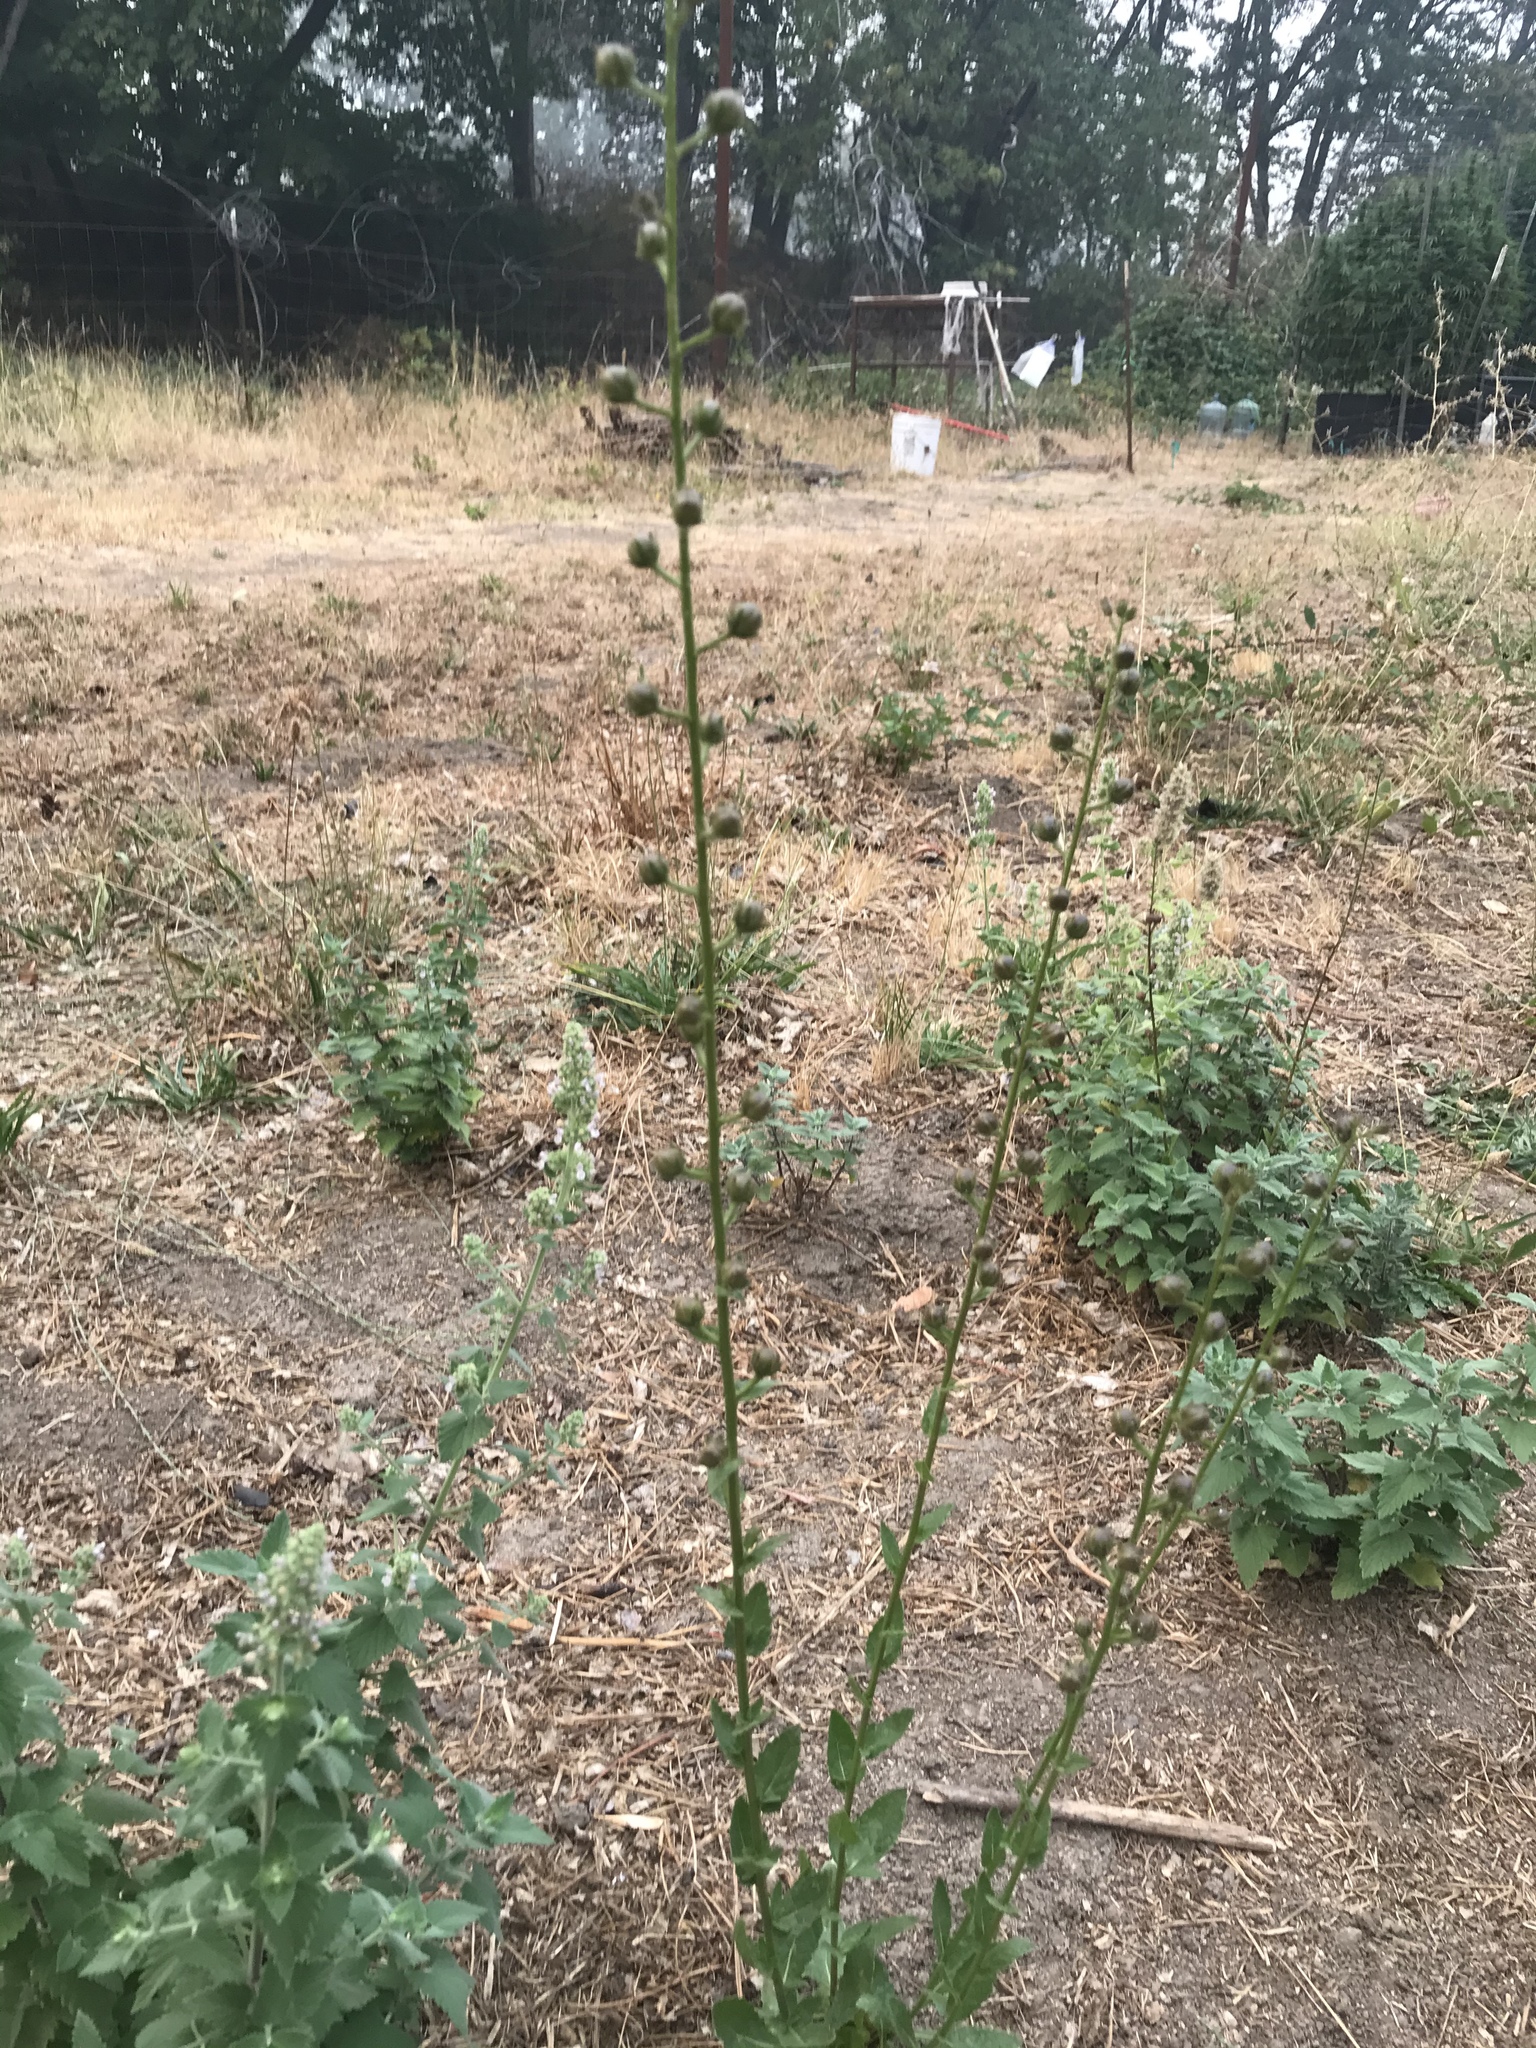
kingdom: Plantae
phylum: Tracheophyta
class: Magnoliopsida
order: Lamiales
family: Scrophulariaceae
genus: Verbascum
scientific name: Verbascum blattaria
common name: Moth mullein
